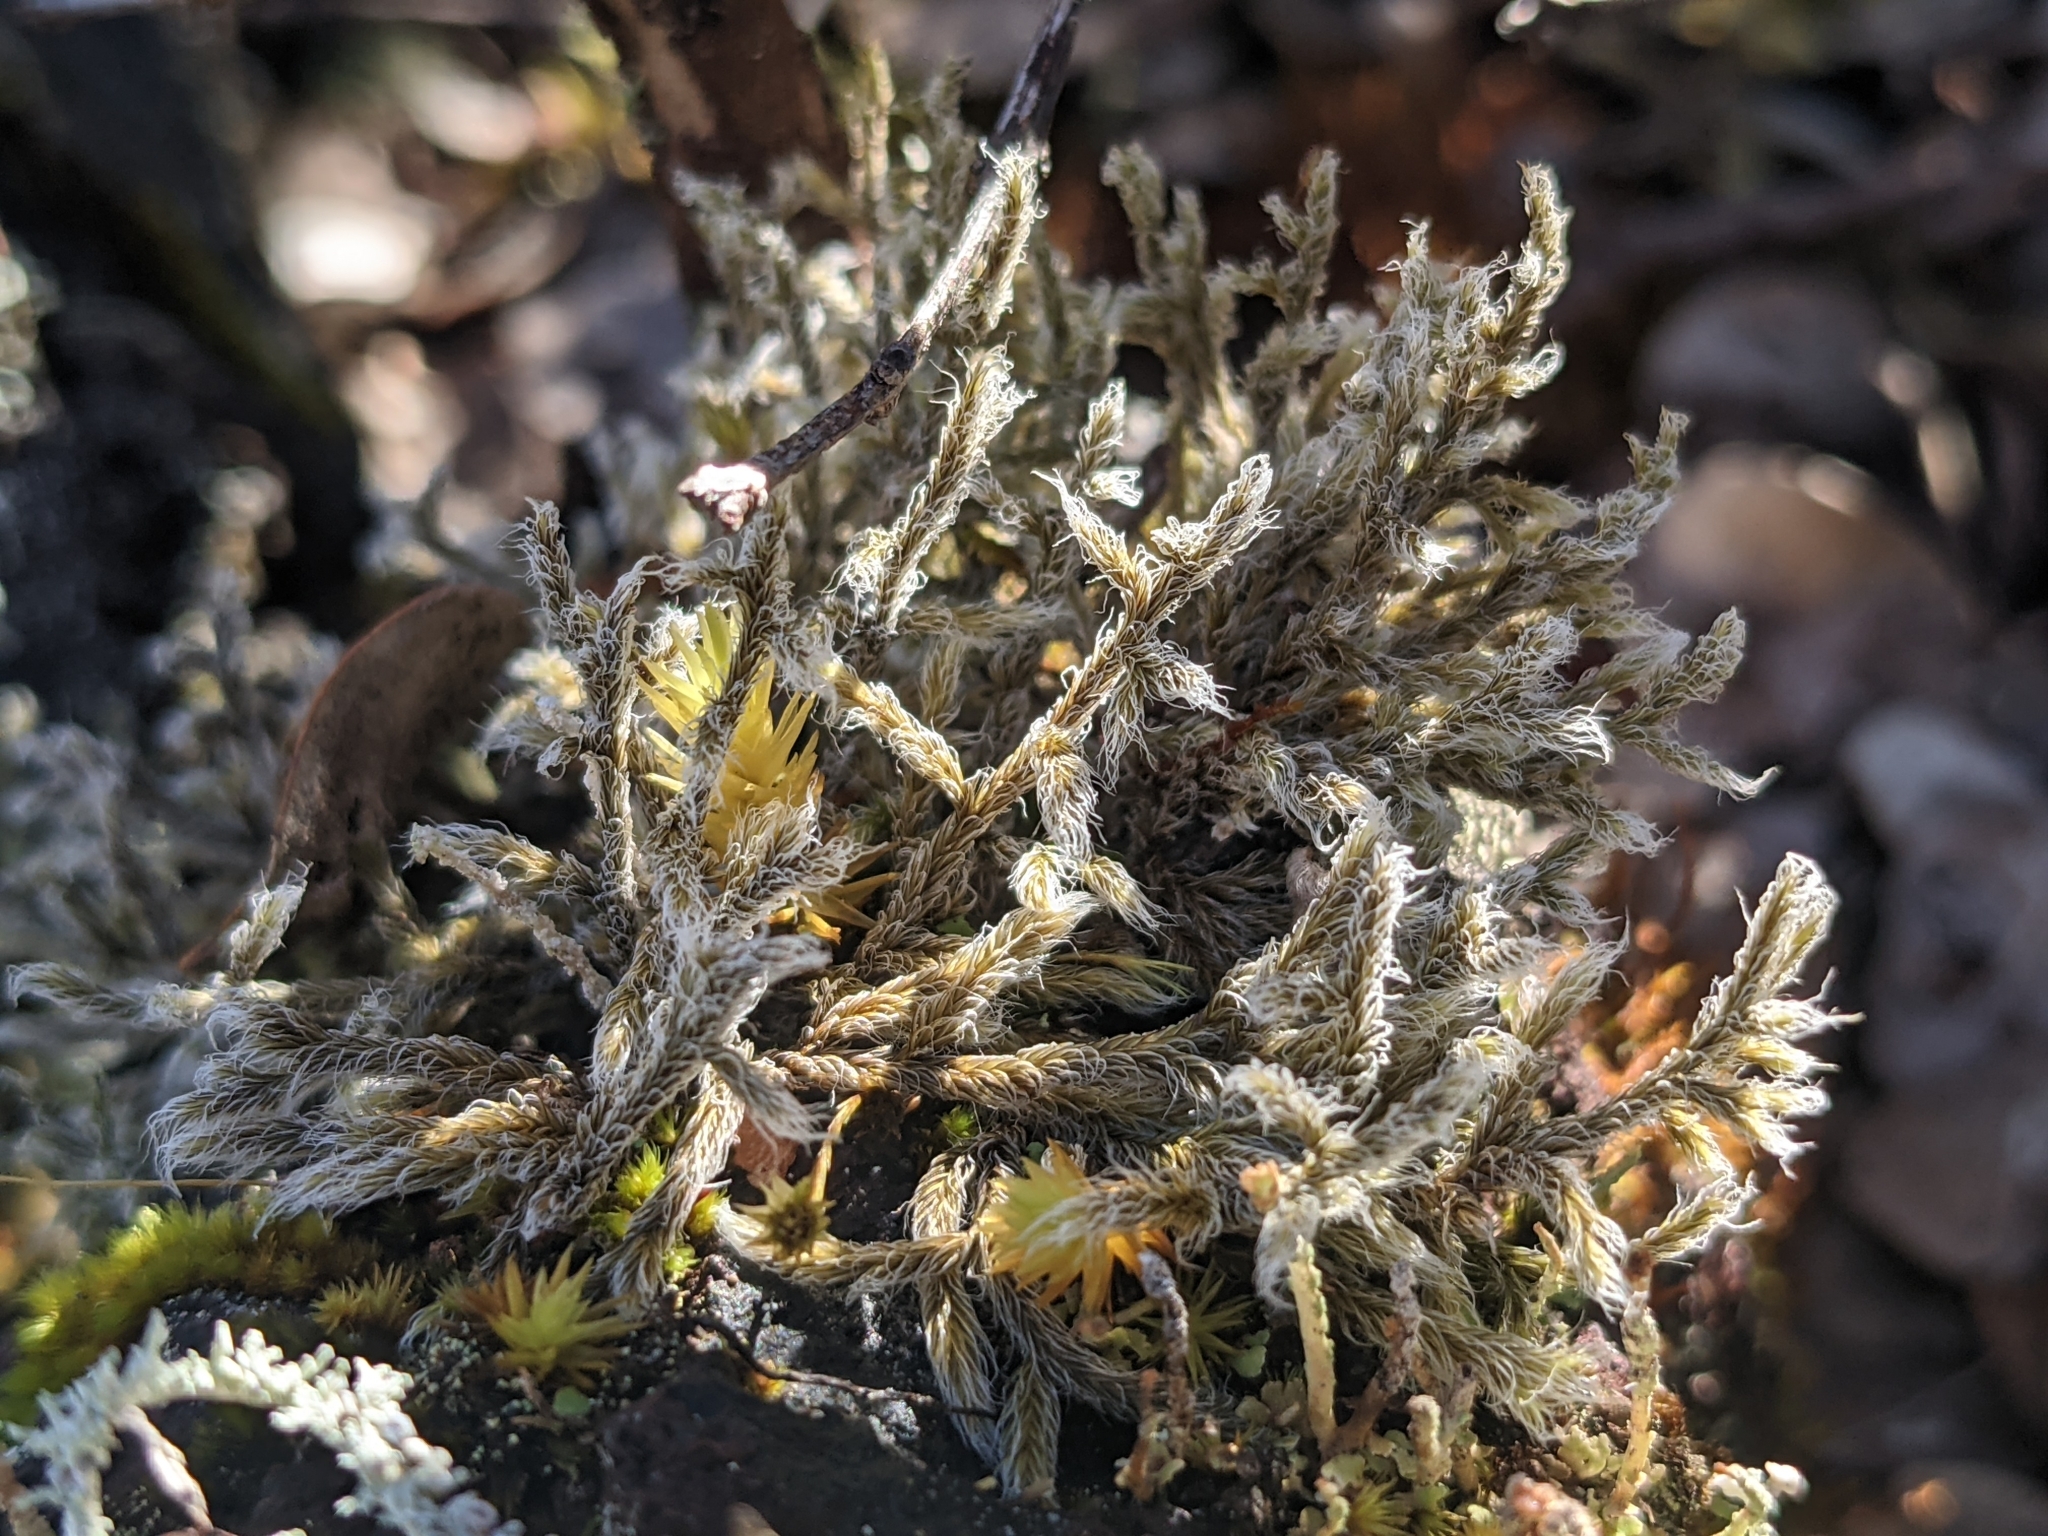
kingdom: Plantae
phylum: Bryophyta
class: Bryopsida
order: Grimmiales
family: Grimmiaceae
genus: Racomitrium
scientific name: Racomitrium lanuginosum
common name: Hoary rock moss
